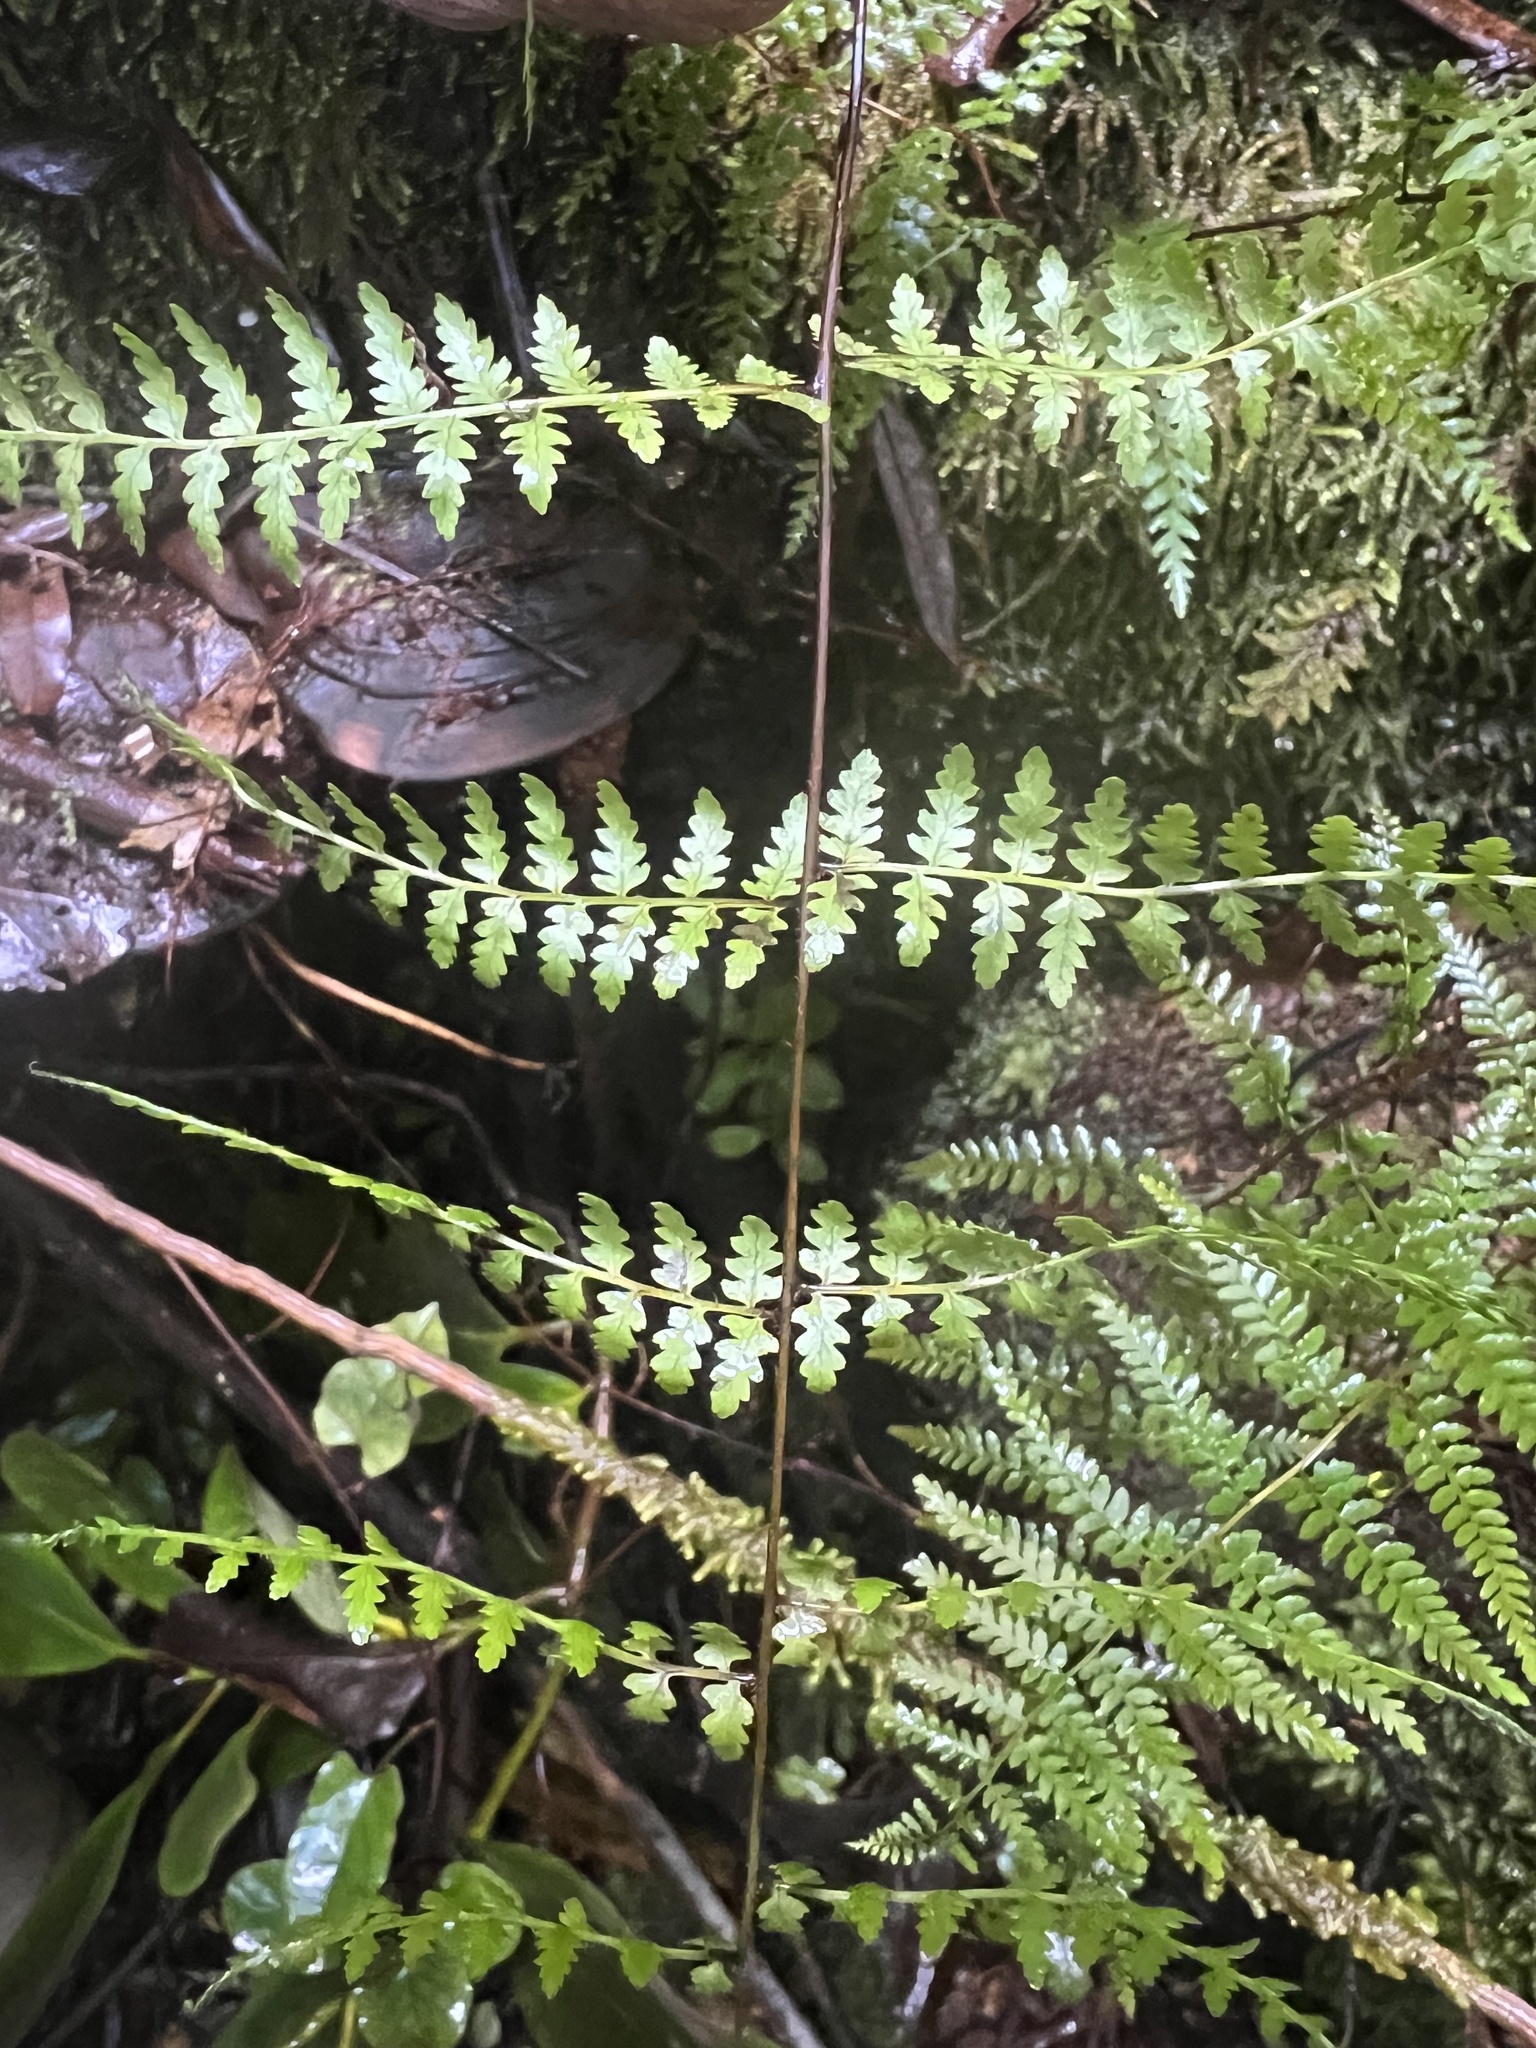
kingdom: Plantae
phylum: Tracheophyta
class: Polypodiopsida
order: Polypodiales
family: Dennstaedtiaceae
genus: Hiya
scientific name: Hiya distans
